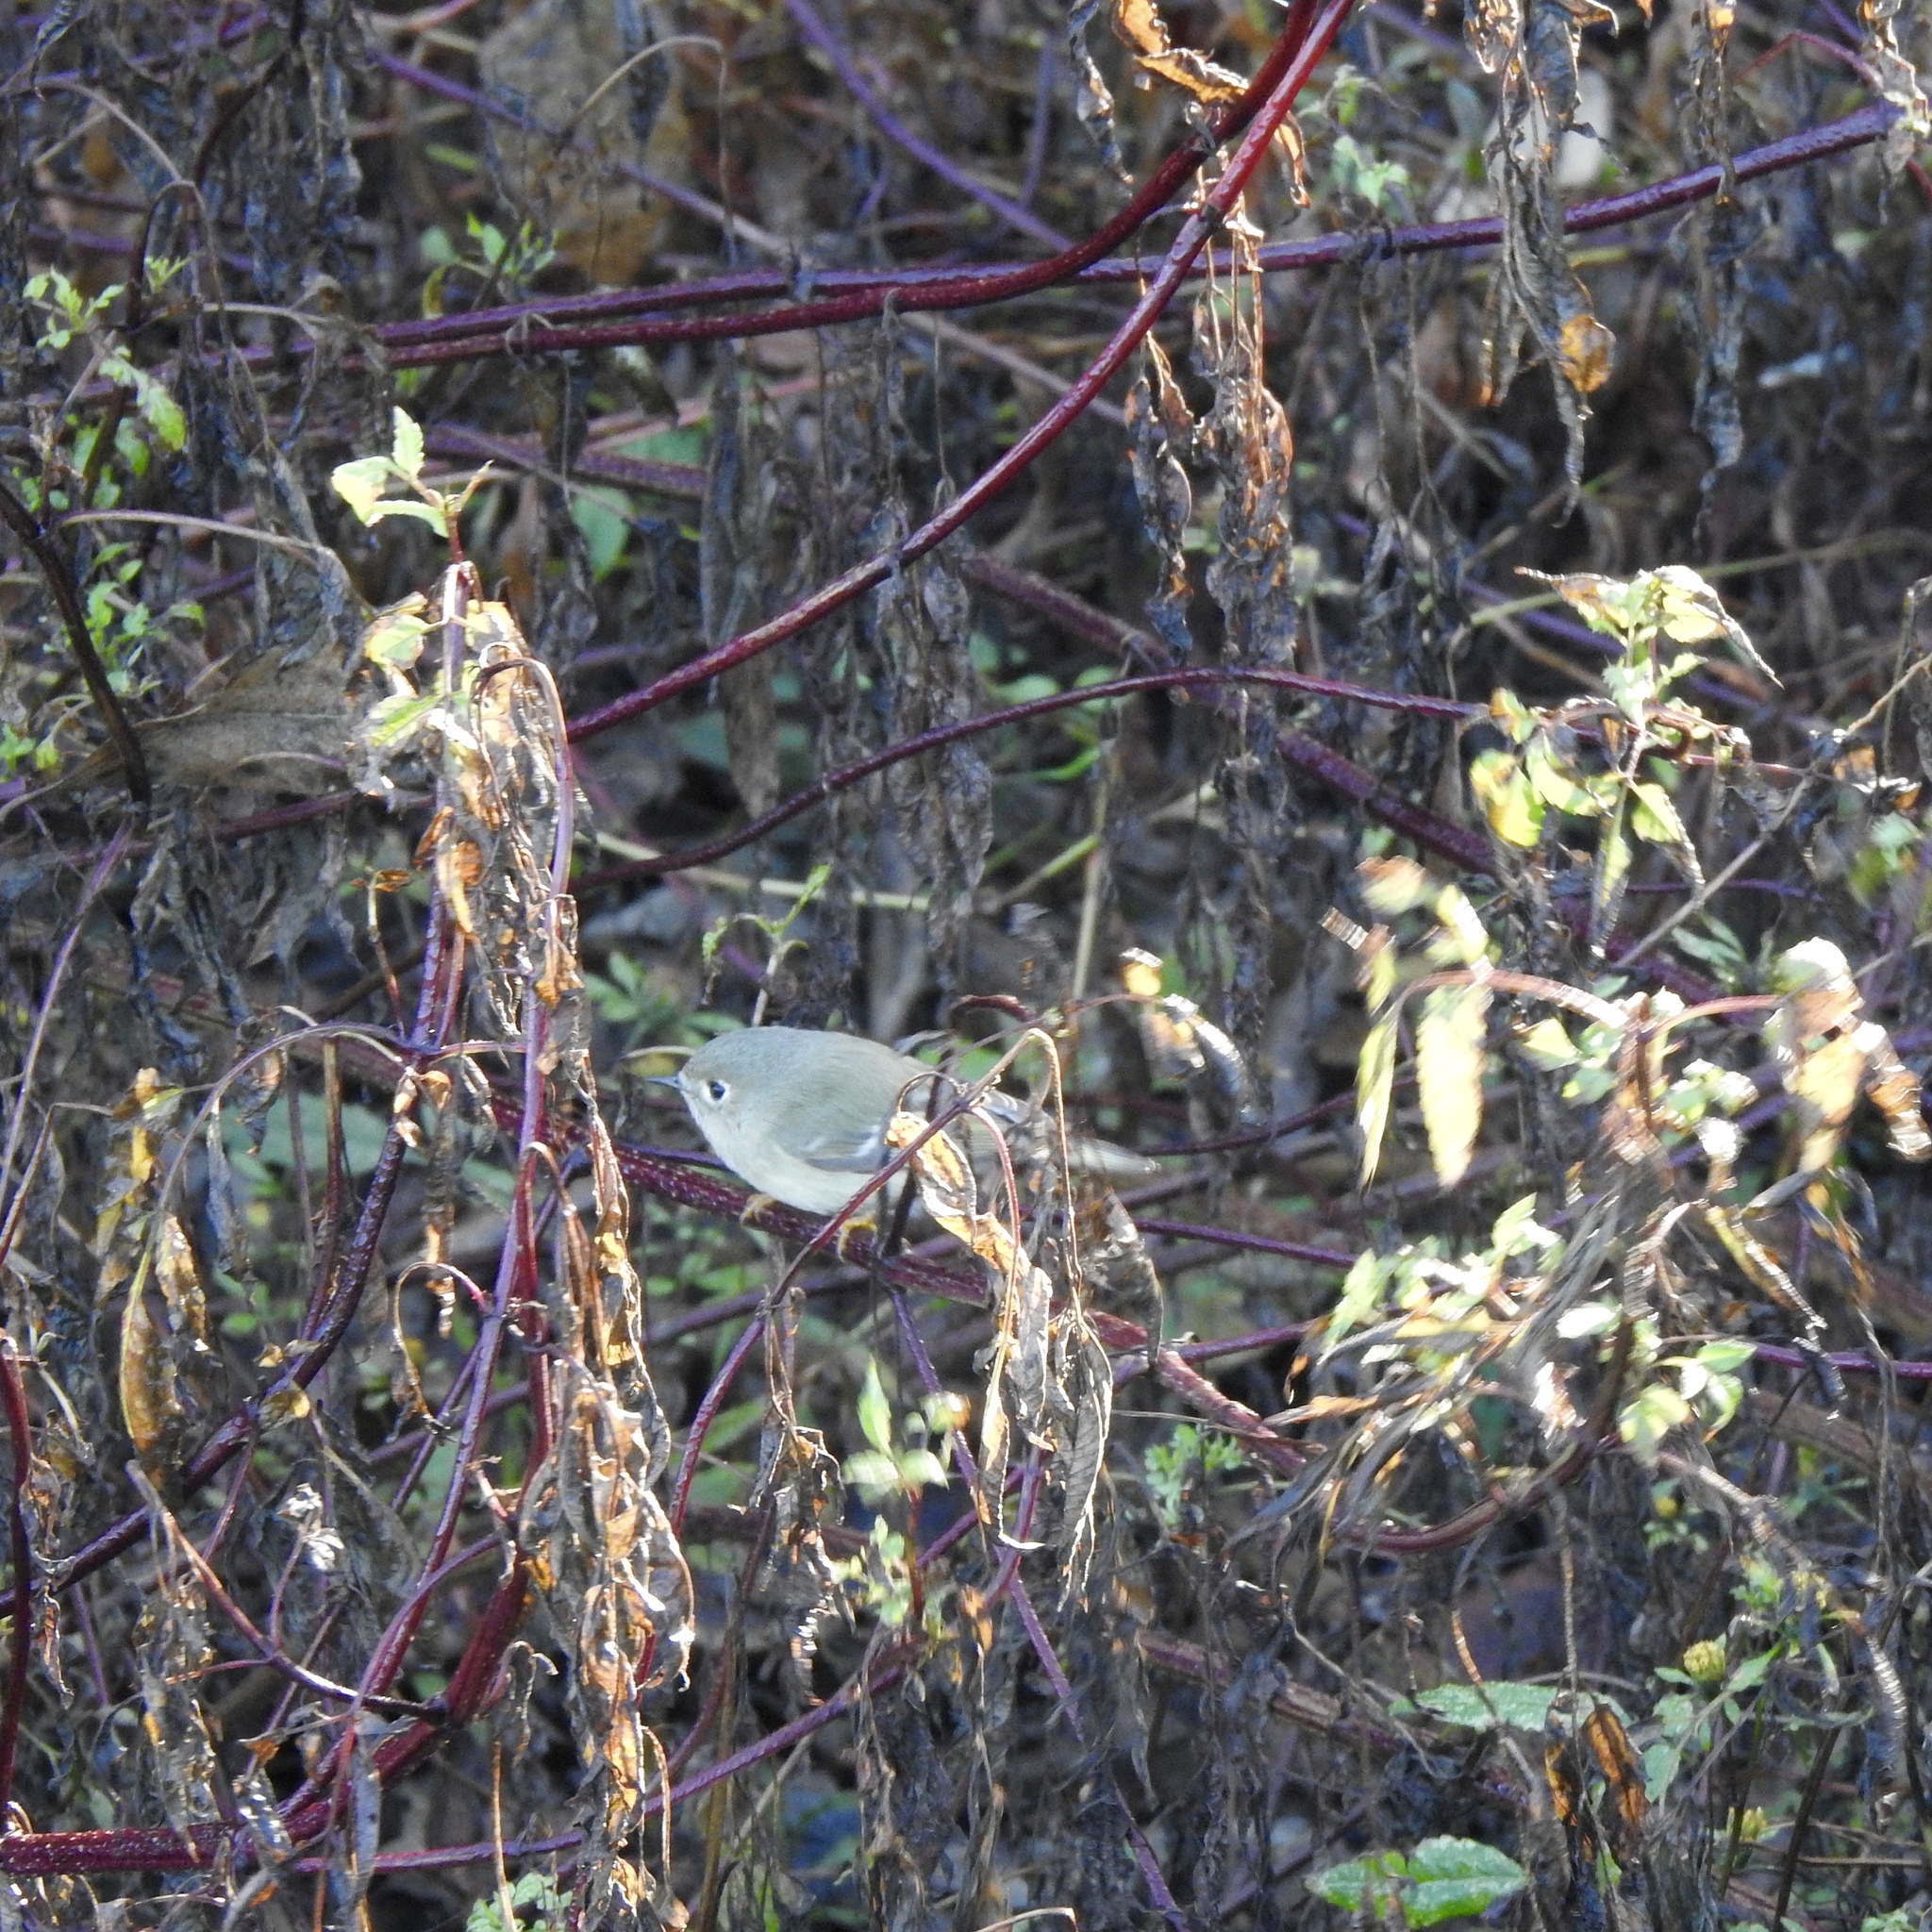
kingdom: Animalia
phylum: Chordata
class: Aves
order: Passeriformes
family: Regulidae
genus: Regulus
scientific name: Regulus calendula
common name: Ruby-crowned kinglet
